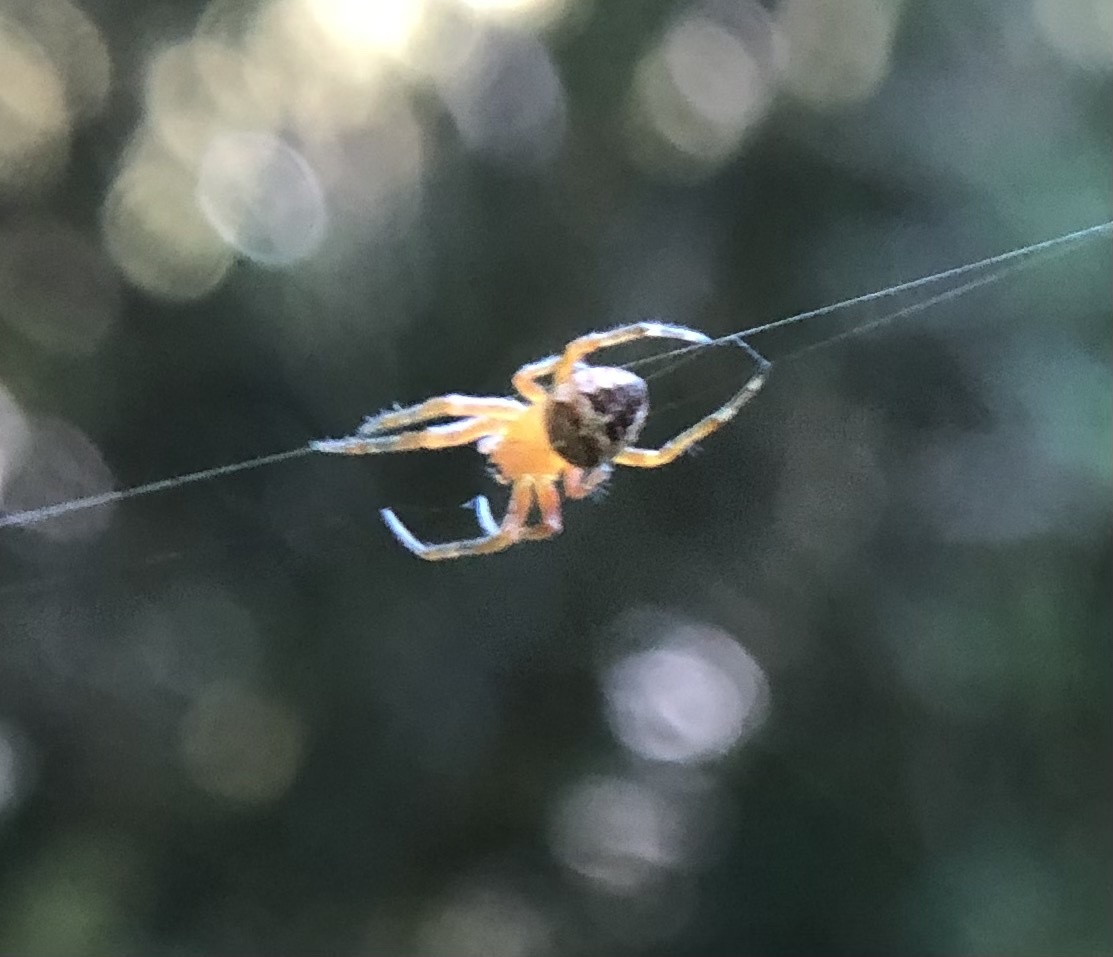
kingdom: Animalia
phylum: Arthropoda
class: Arachnida
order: Araneae
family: Araneidae
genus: Araneus
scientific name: Araneus diadematus
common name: Cross orbweaver
